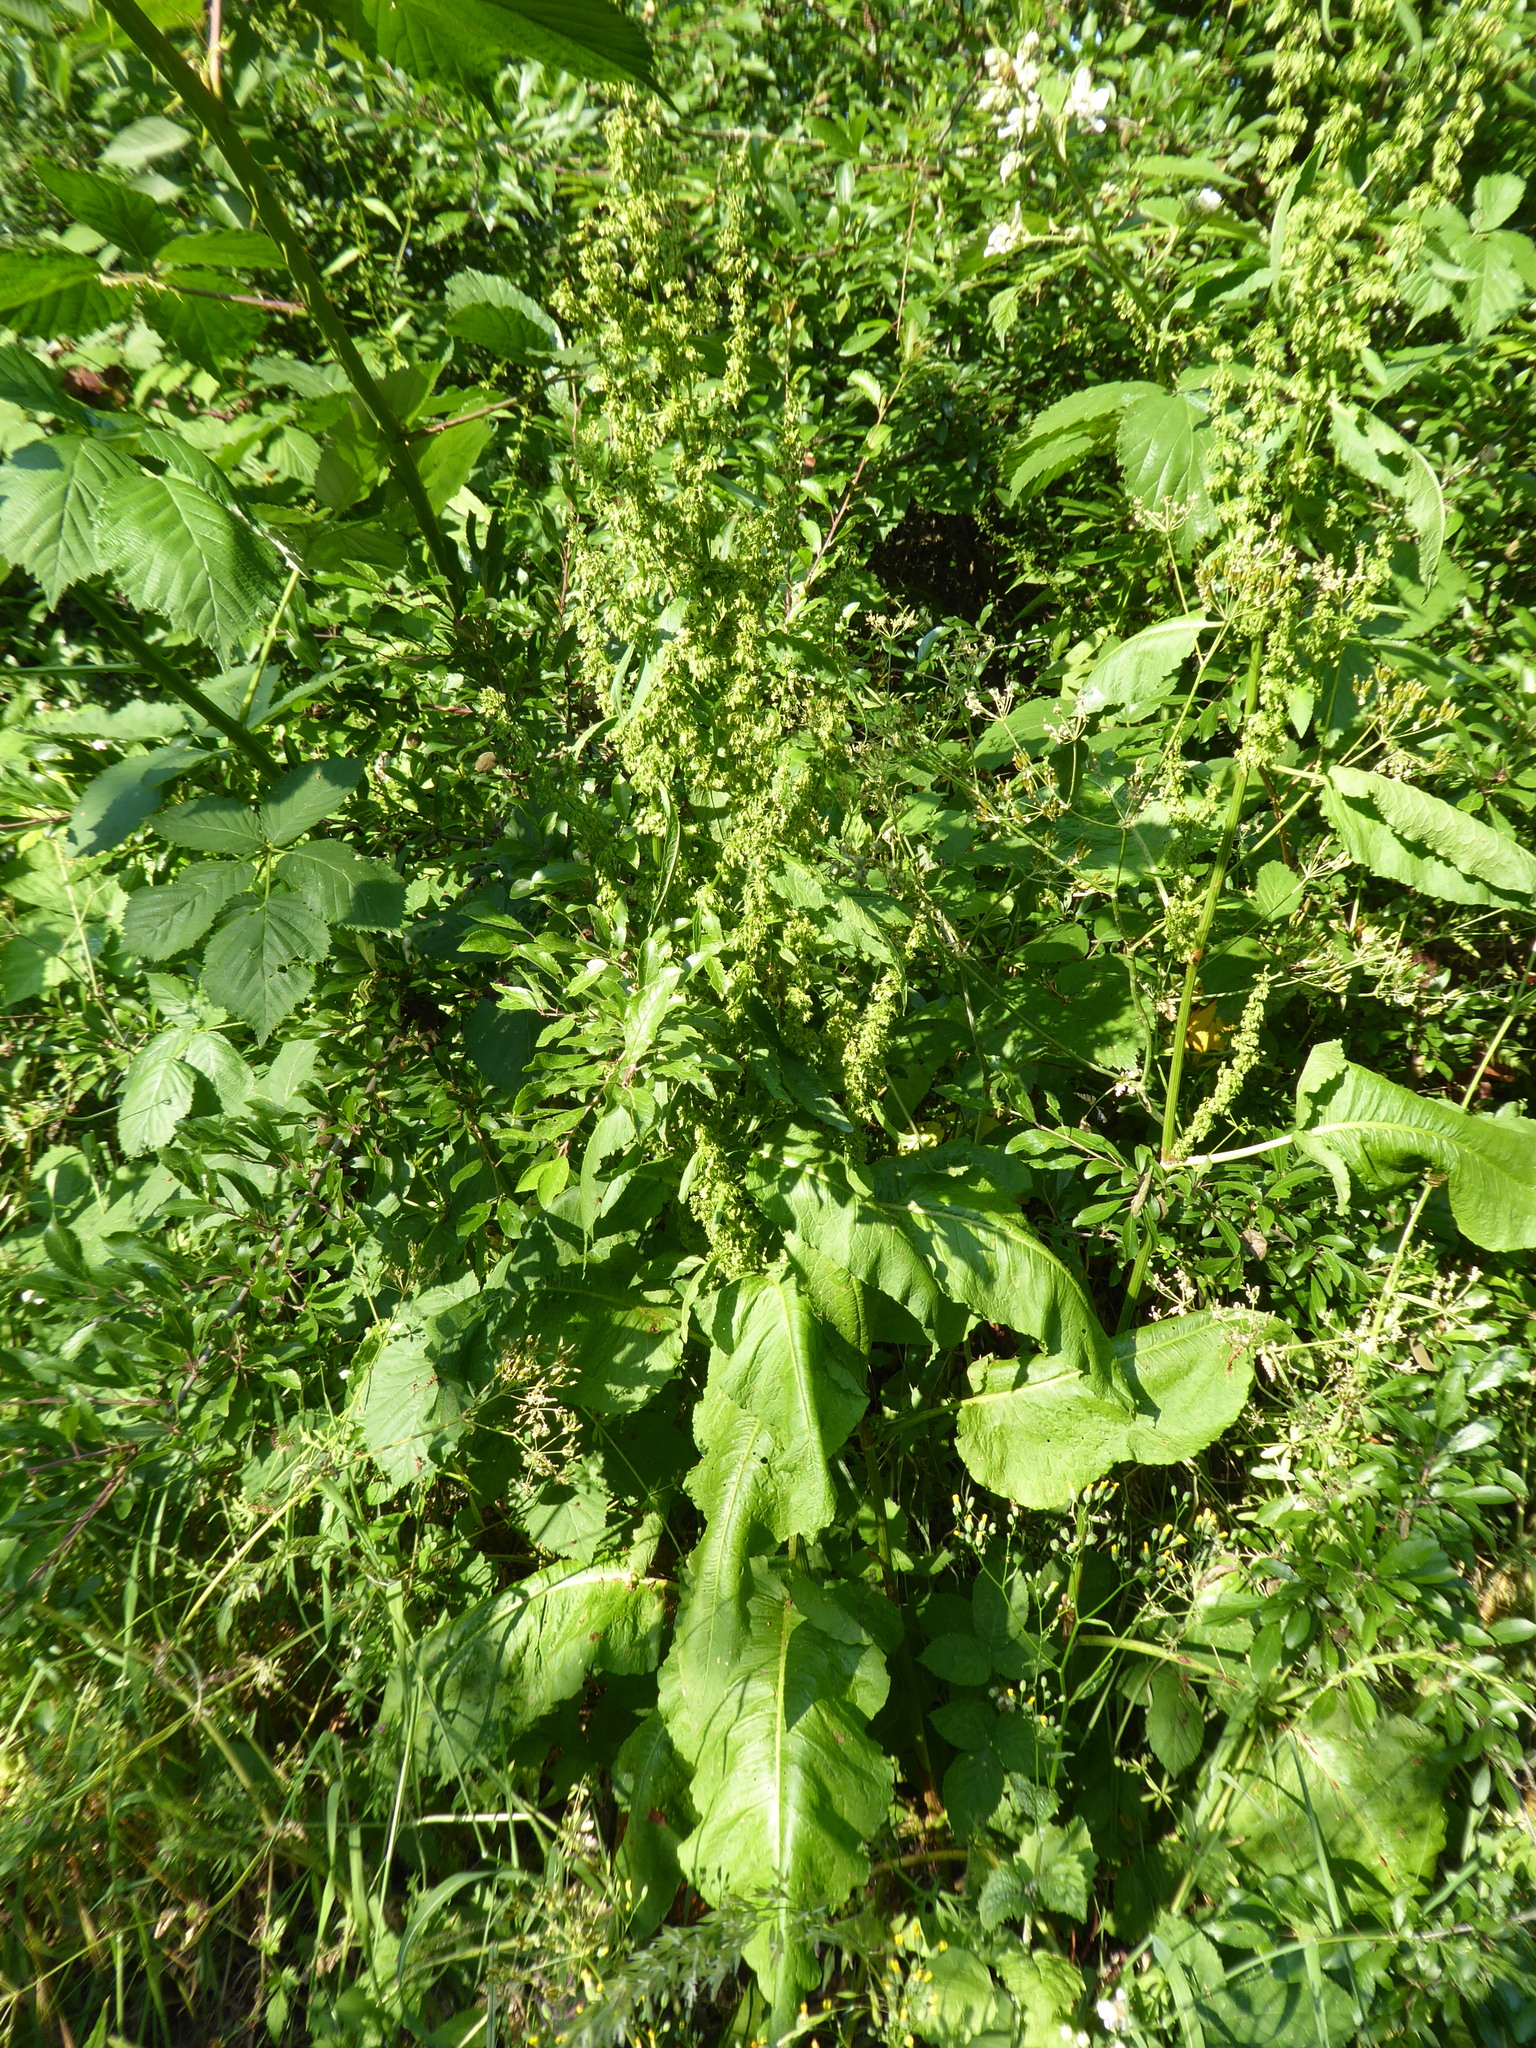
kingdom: Plantae
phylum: Tracheophyta
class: Magnoliopsida
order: Caryophyllales
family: Polygonaceae
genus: Rumex
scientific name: Rumex obtusifolius
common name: Bitter dock
